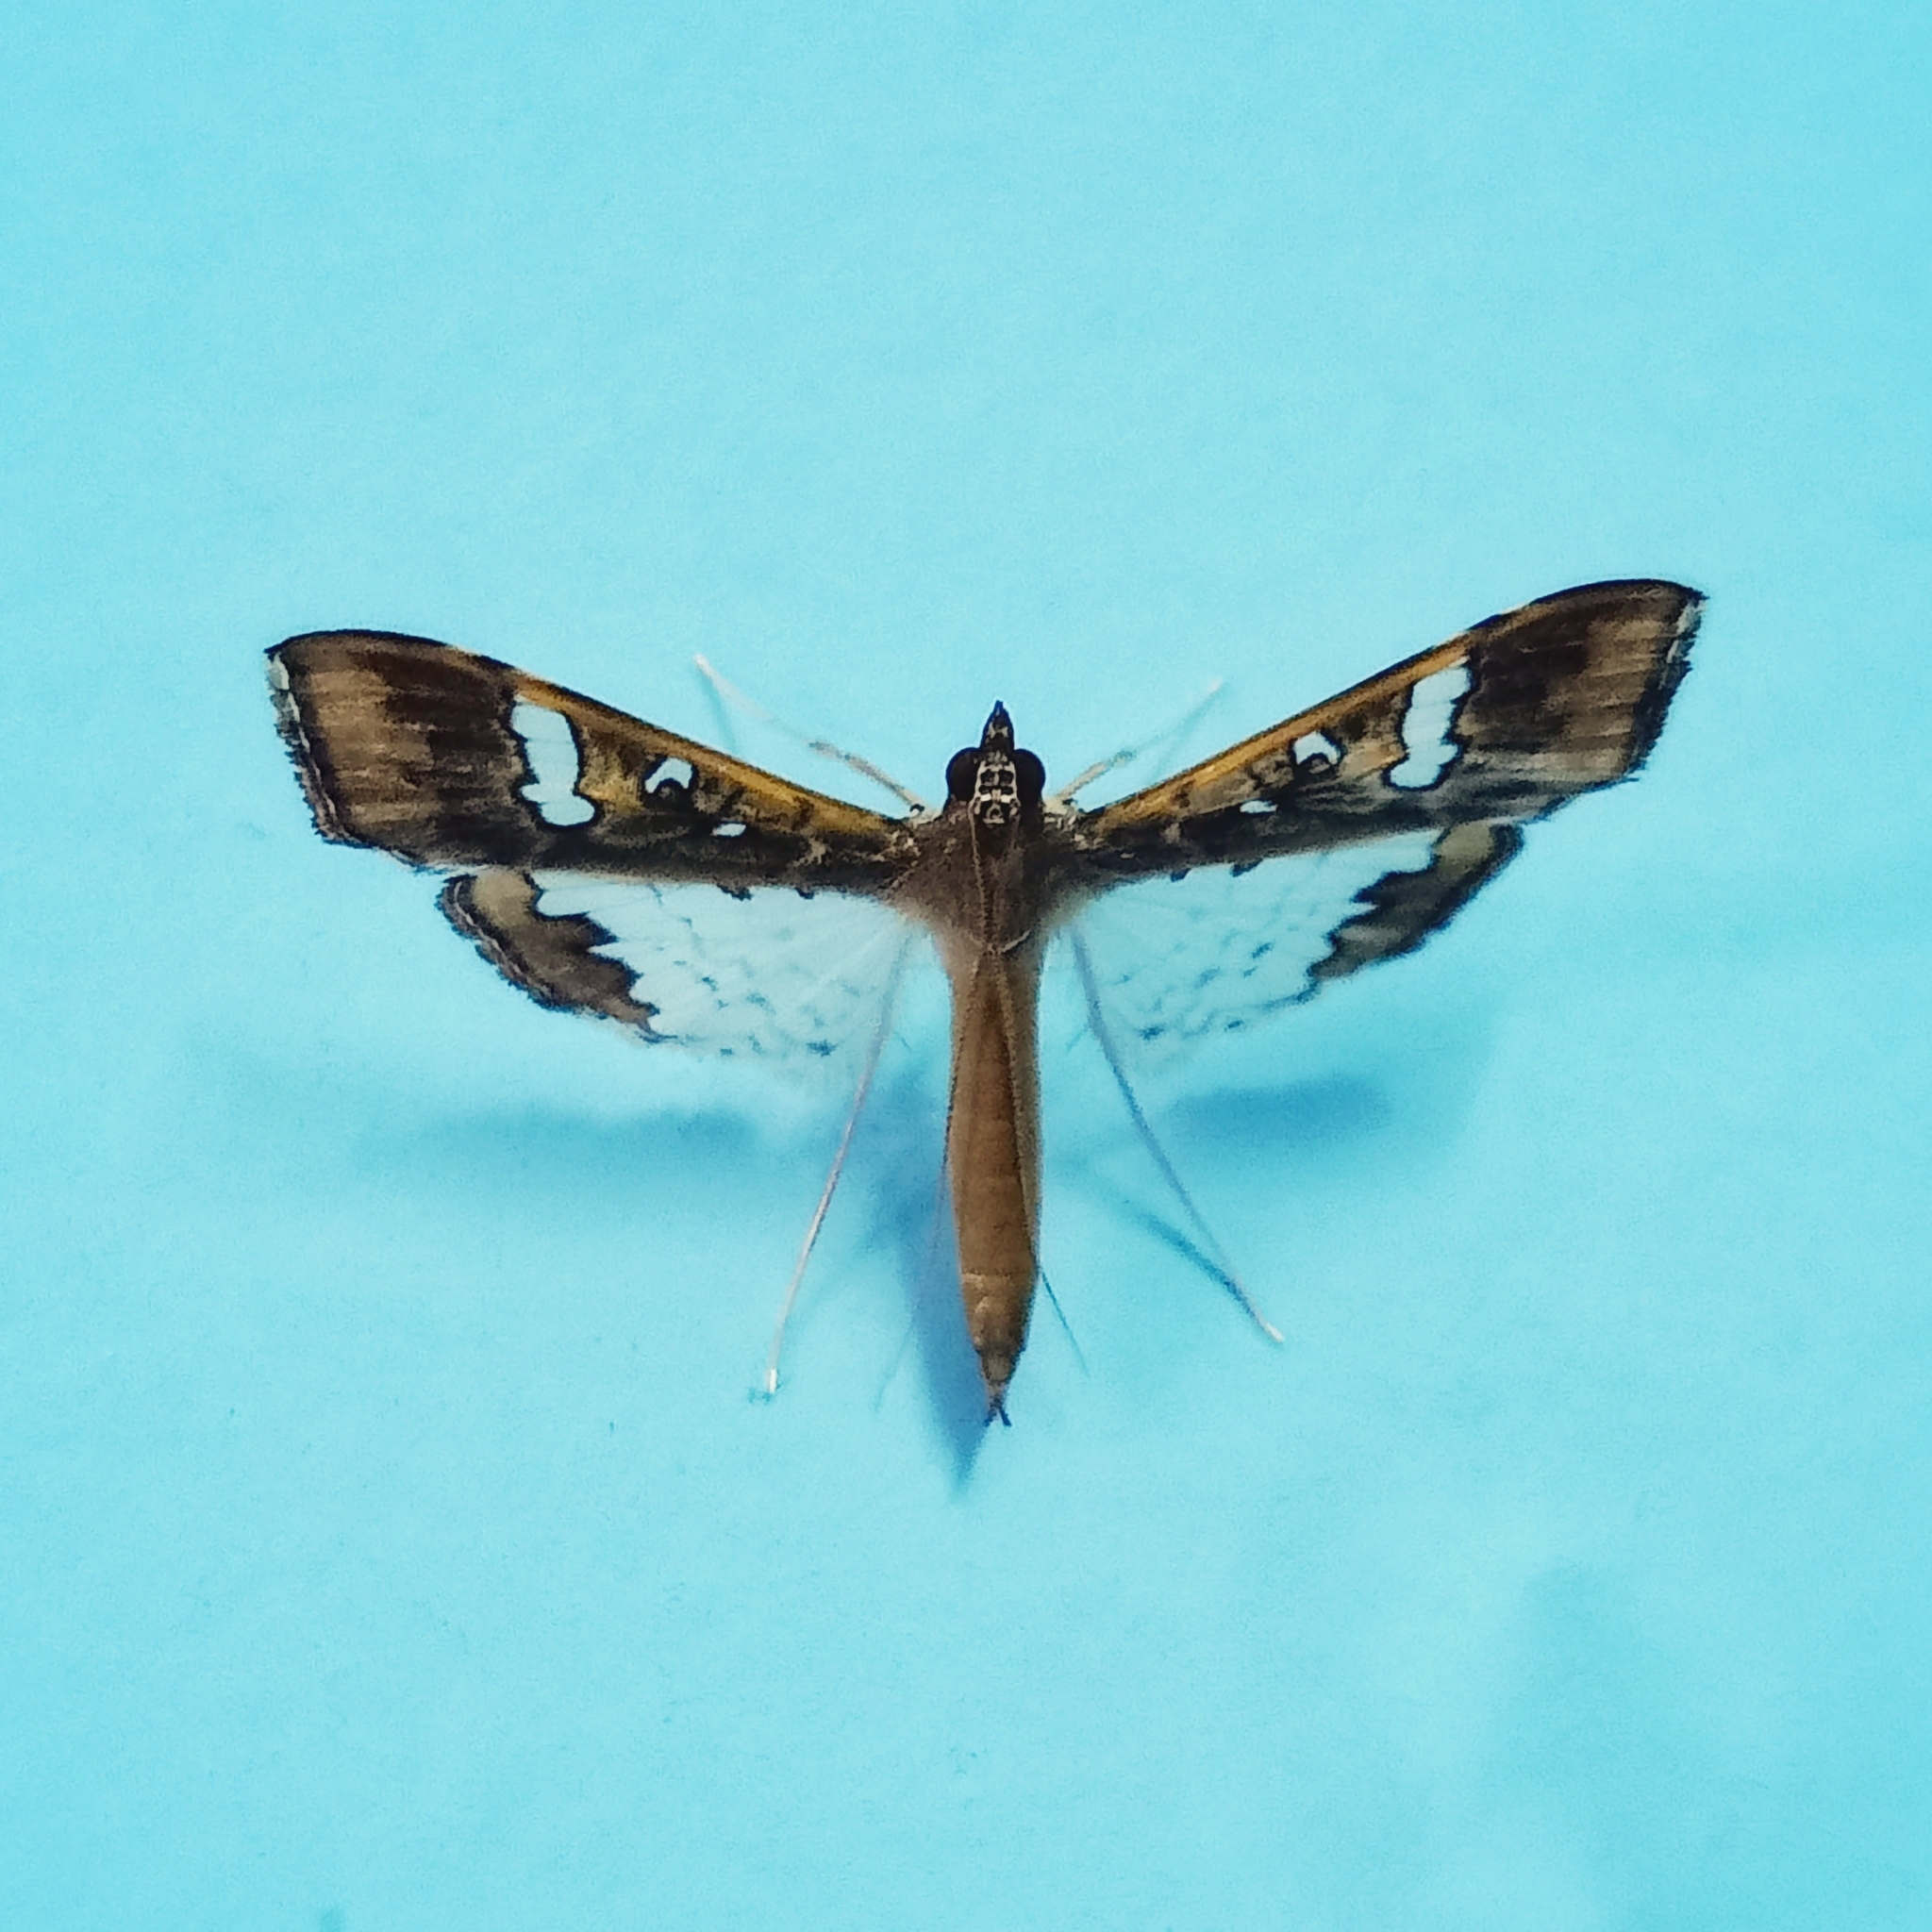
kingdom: Animalia
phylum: Arthropoda
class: Insecta
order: Lepidoptera
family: Crambidae
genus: Maruca
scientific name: Maruca vitrata
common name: Maruca pod borer
